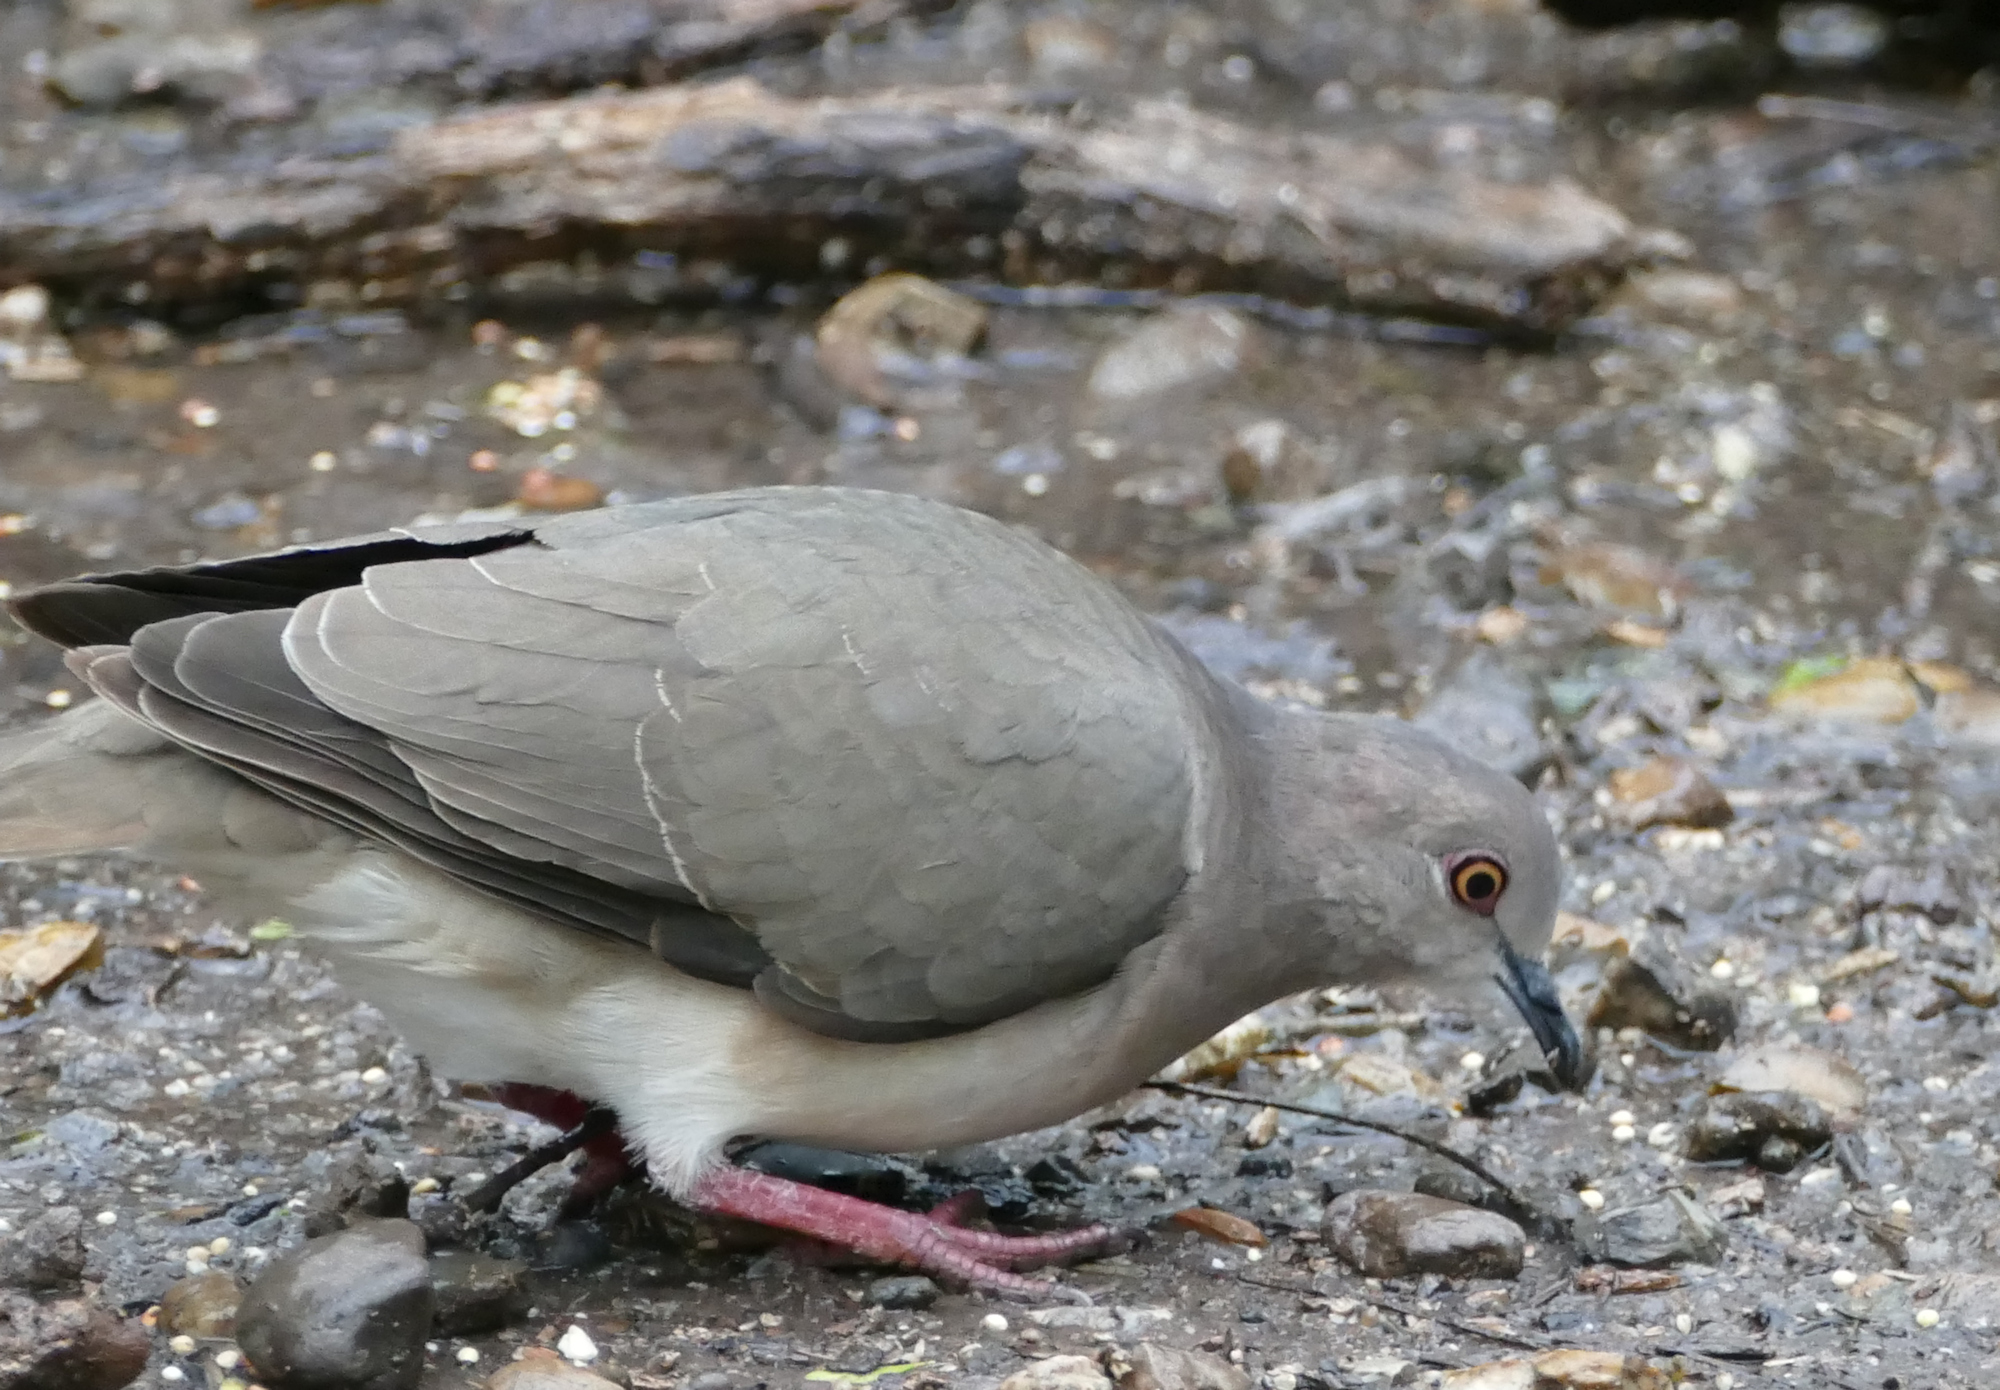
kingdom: Animalia
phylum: Chordata
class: Aves
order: Columbiformes
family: Columbidae
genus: Leptotila
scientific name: Leptotila verreauxi
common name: White-tipped dove
